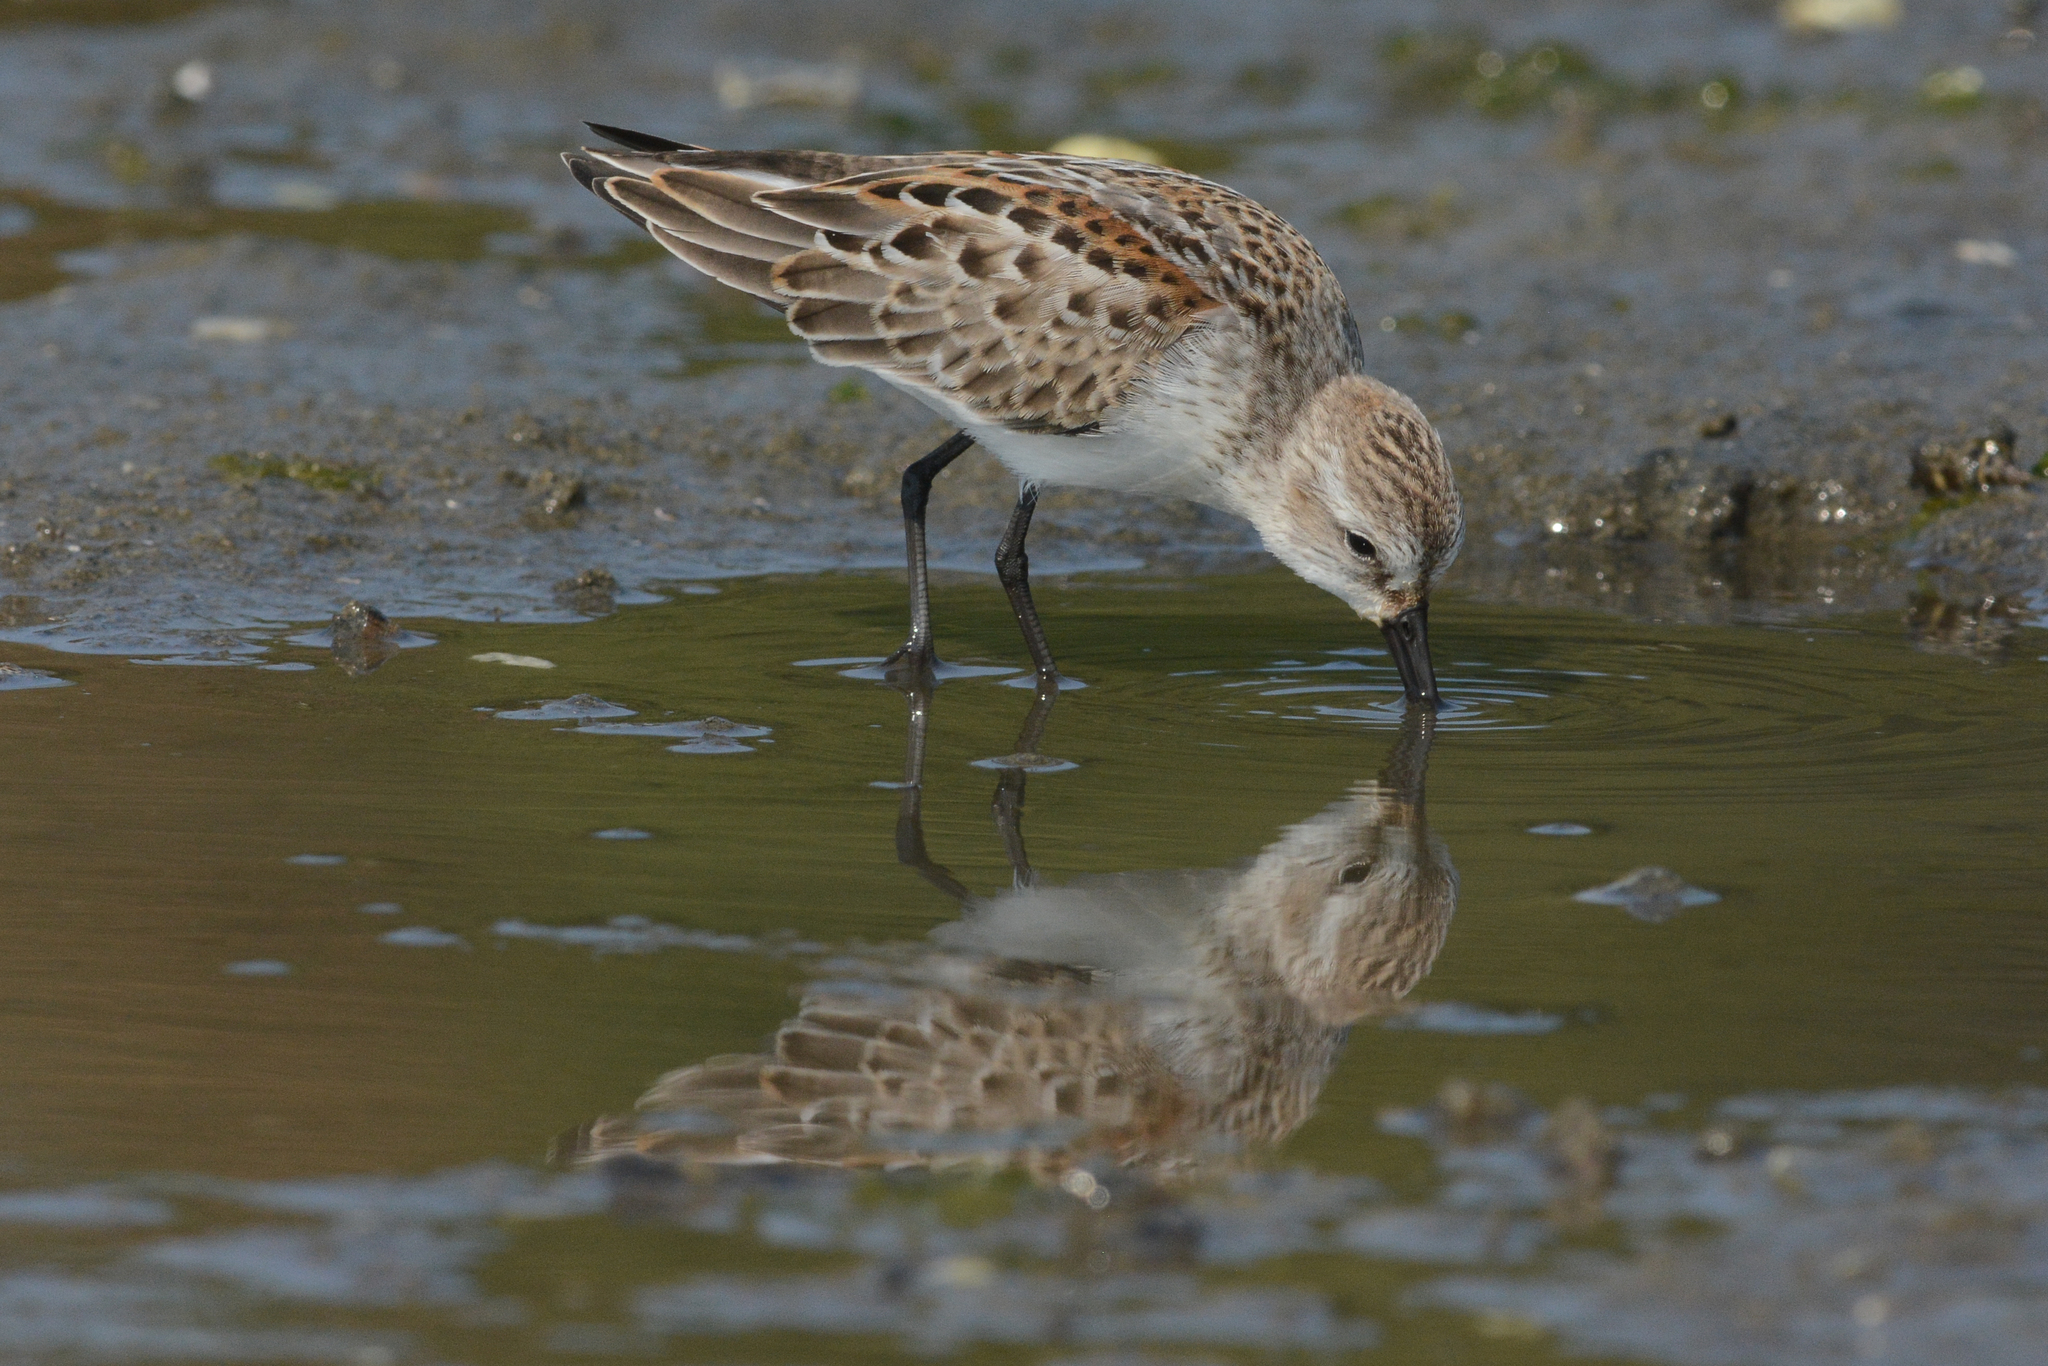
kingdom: Animalia
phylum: Chordata
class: Aves
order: Charadriiformes
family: Scolopacidae
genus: Calidris
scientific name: Calidris mauri
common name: Western sandpiper
